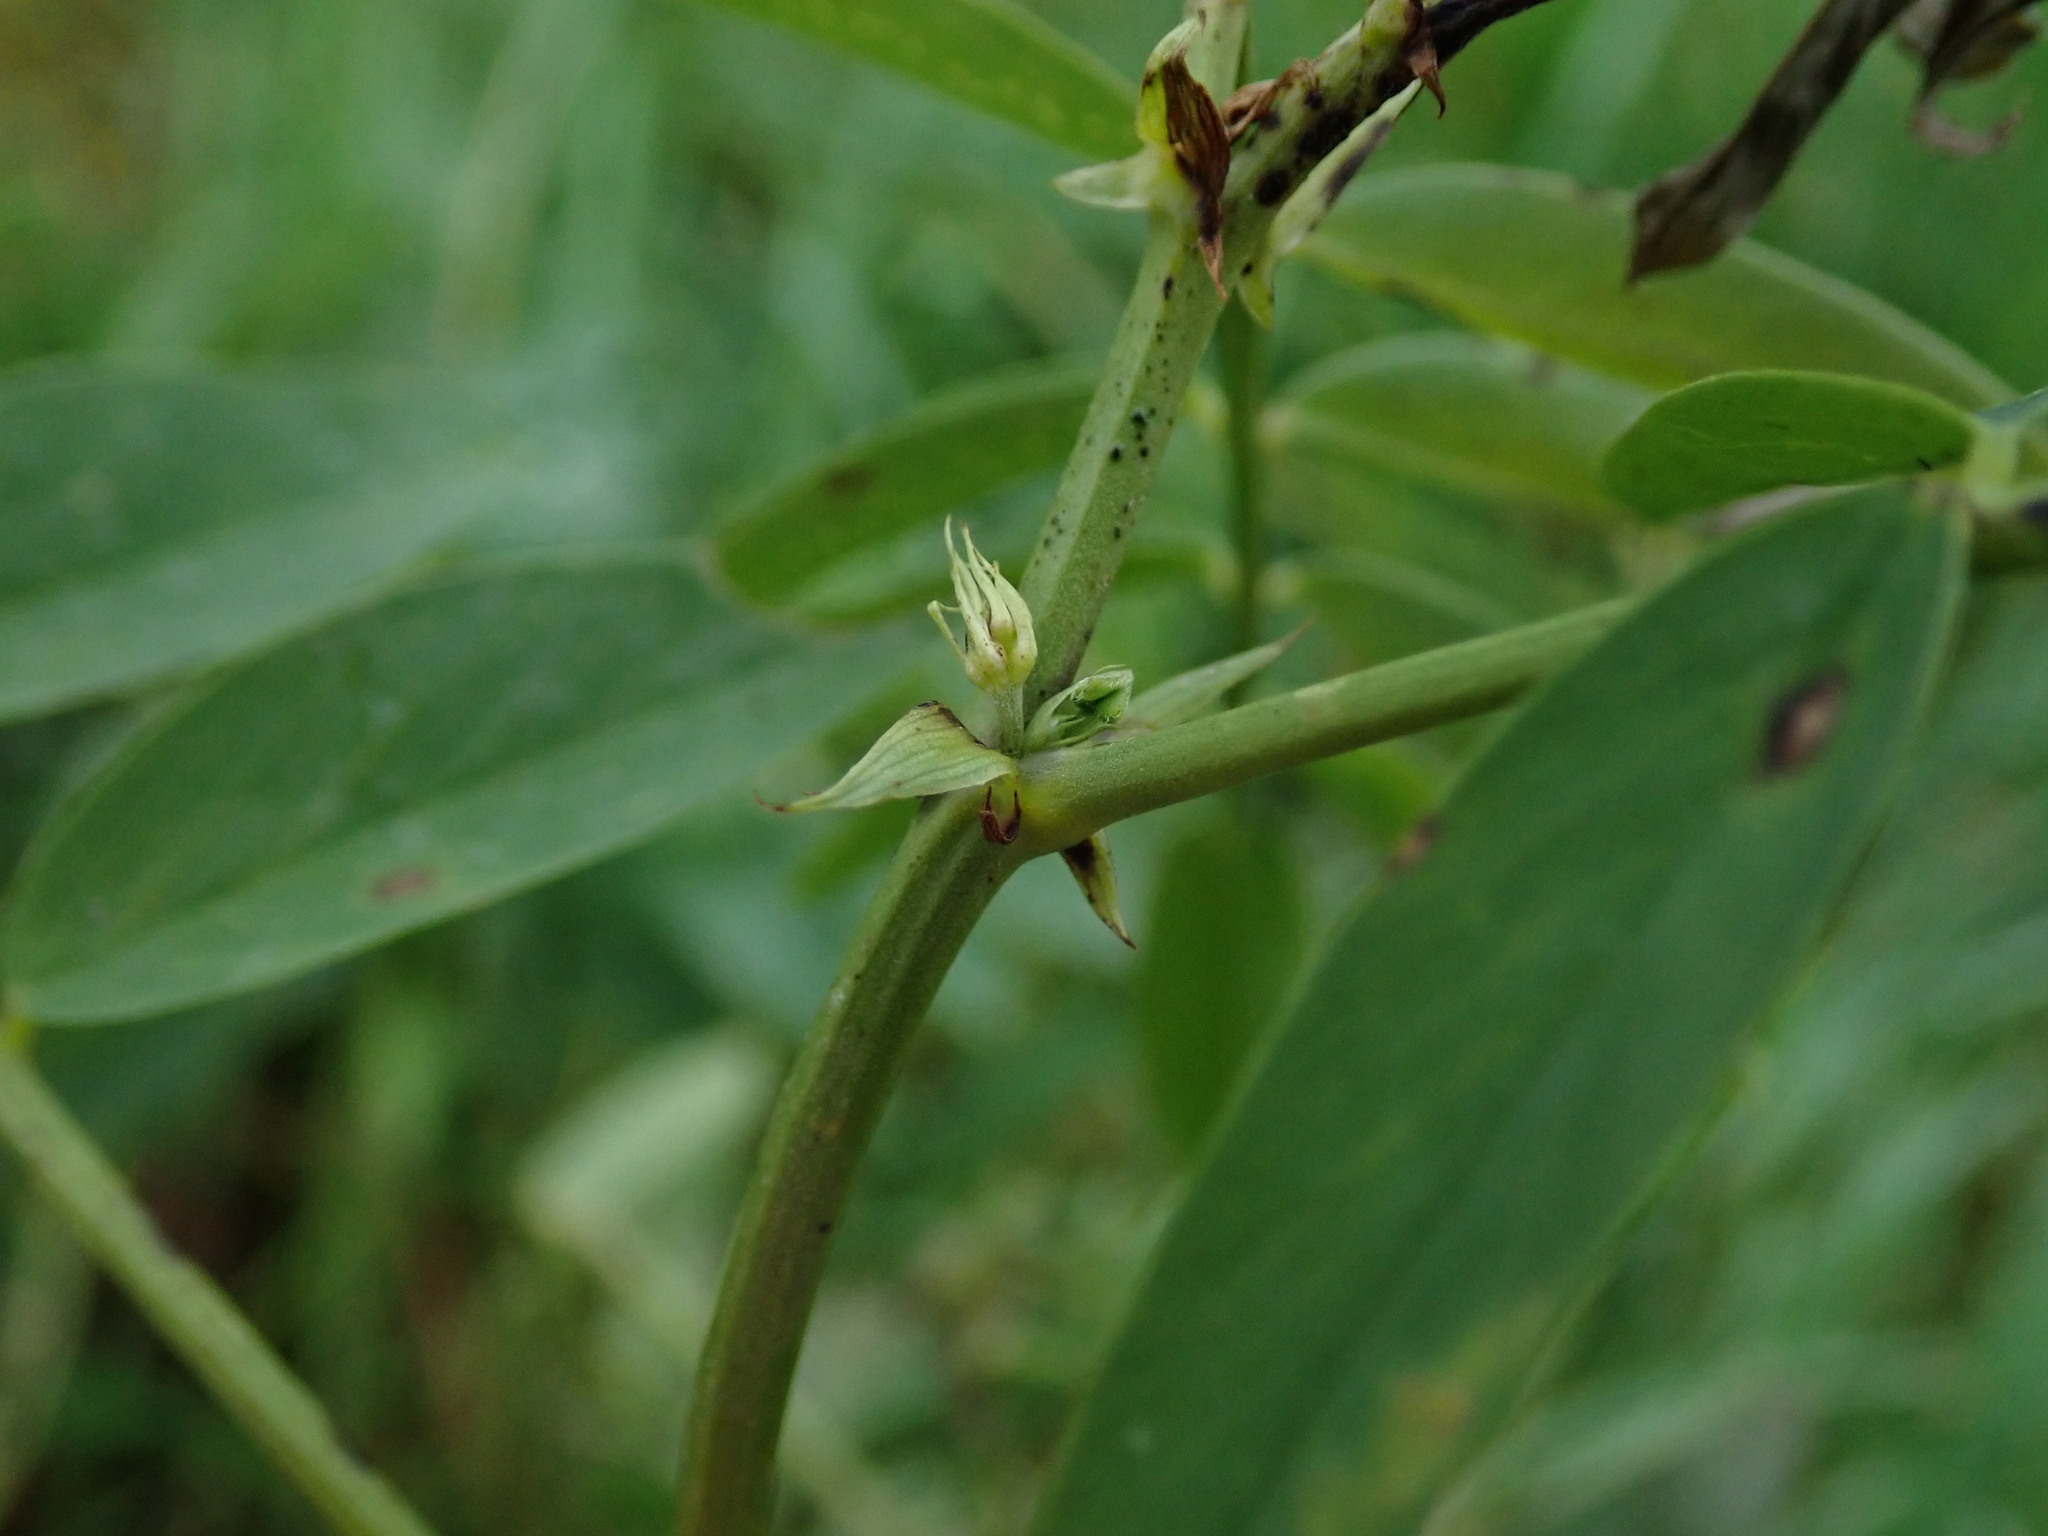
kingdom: Plantae
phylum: Tracheophyta
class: Magnoliopsida
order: Fabales
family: Fabaceae
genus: Galega
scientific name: Galega officinalis
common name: Goat's-rue
